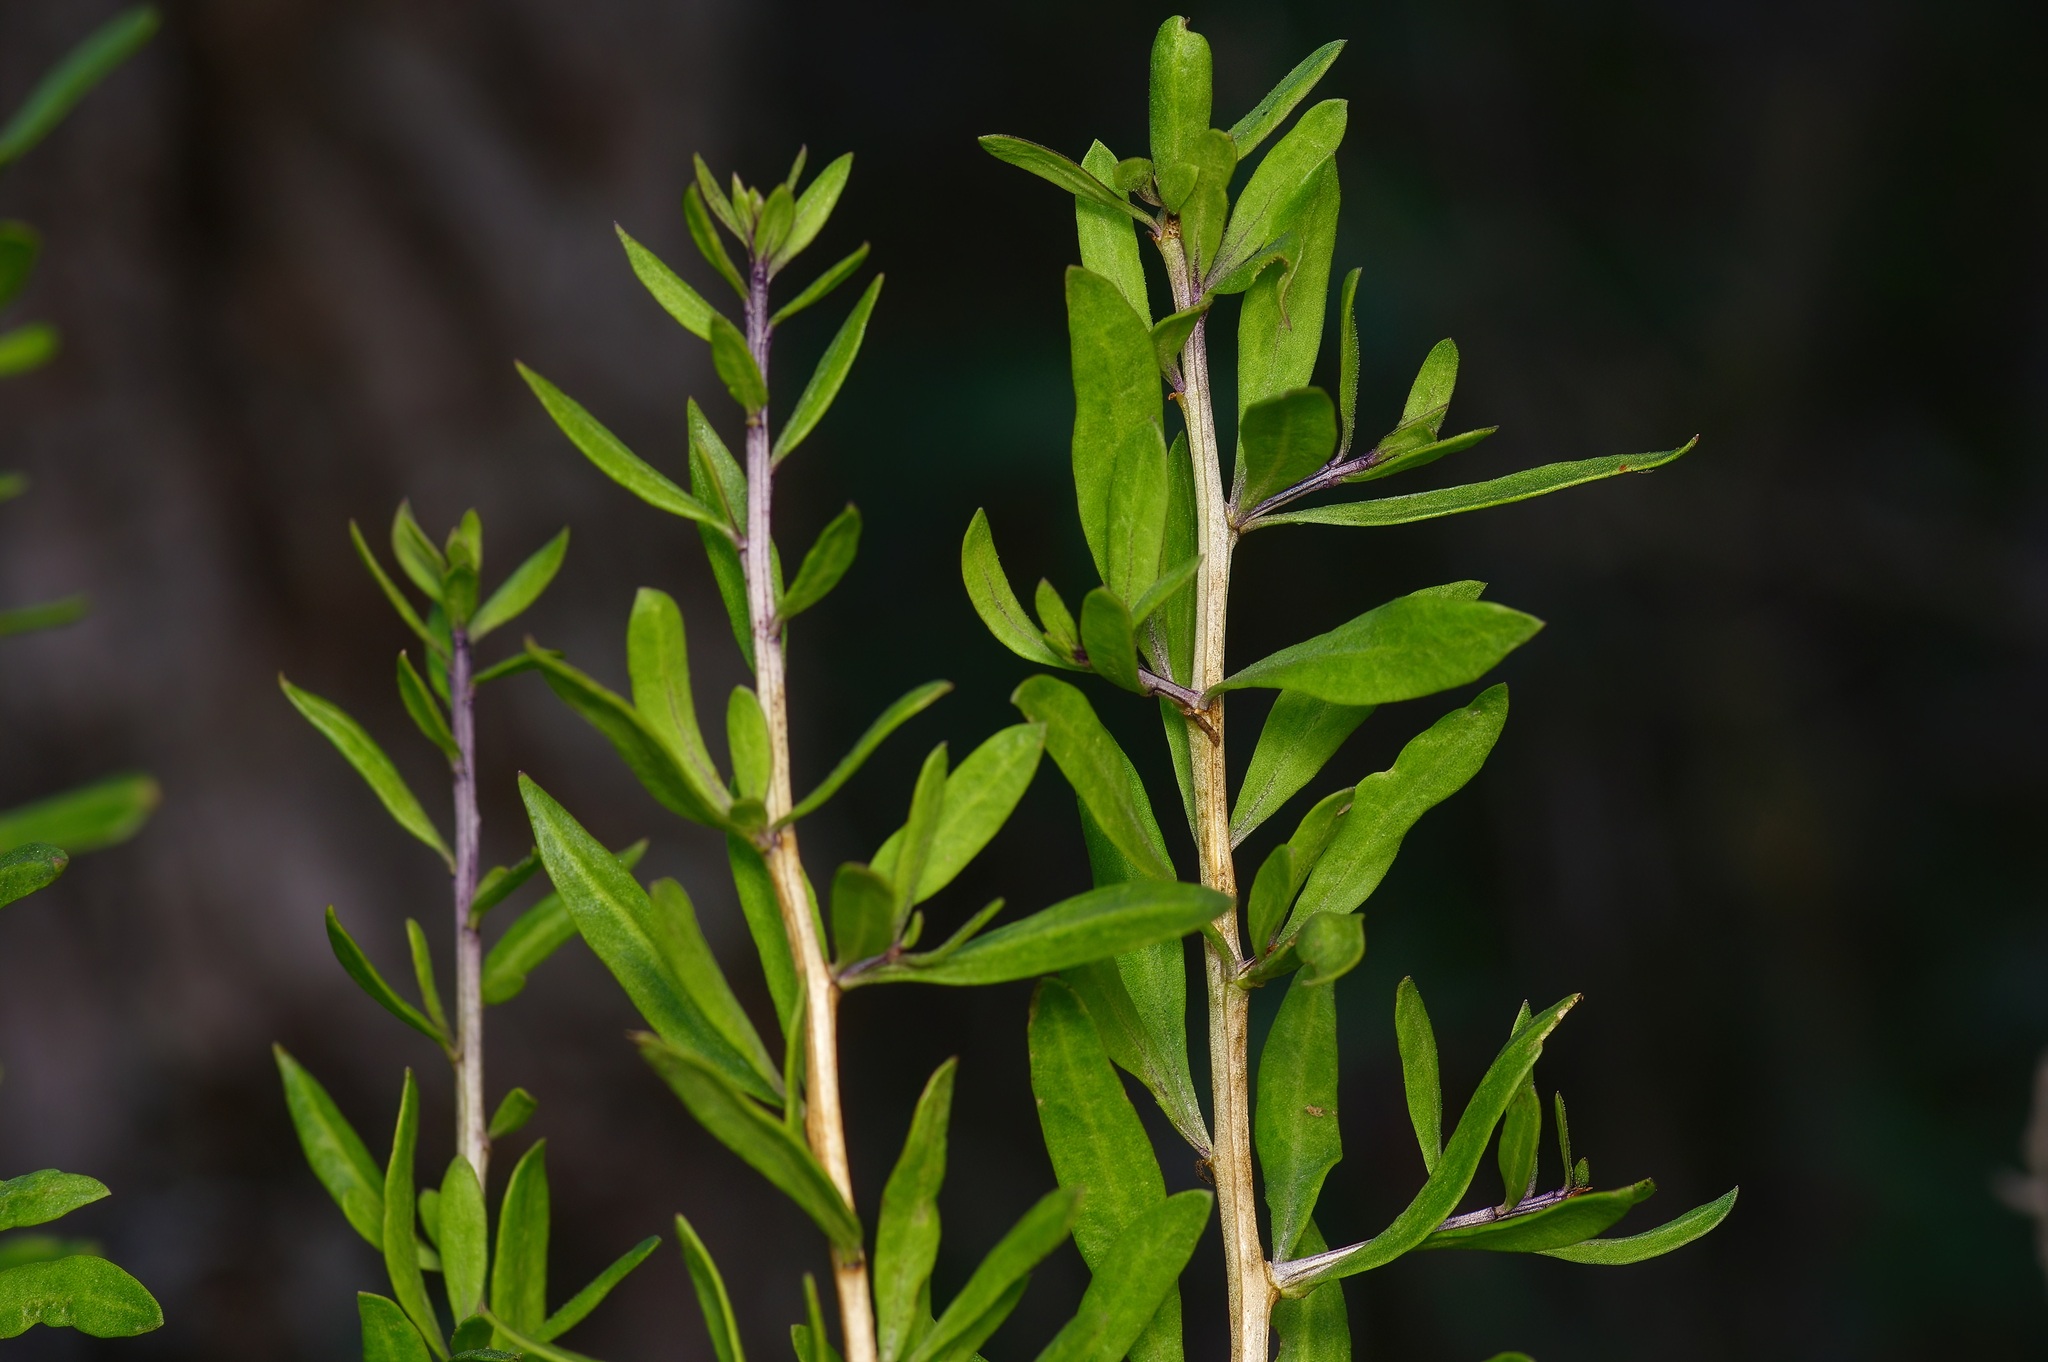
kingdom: Plantae
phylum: Tracheophyta
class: Magnoliopsida
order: Solanales
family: Solanaceae
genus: Lycium
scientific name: Lycium berlandieri
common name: Berlandier wolfberry
